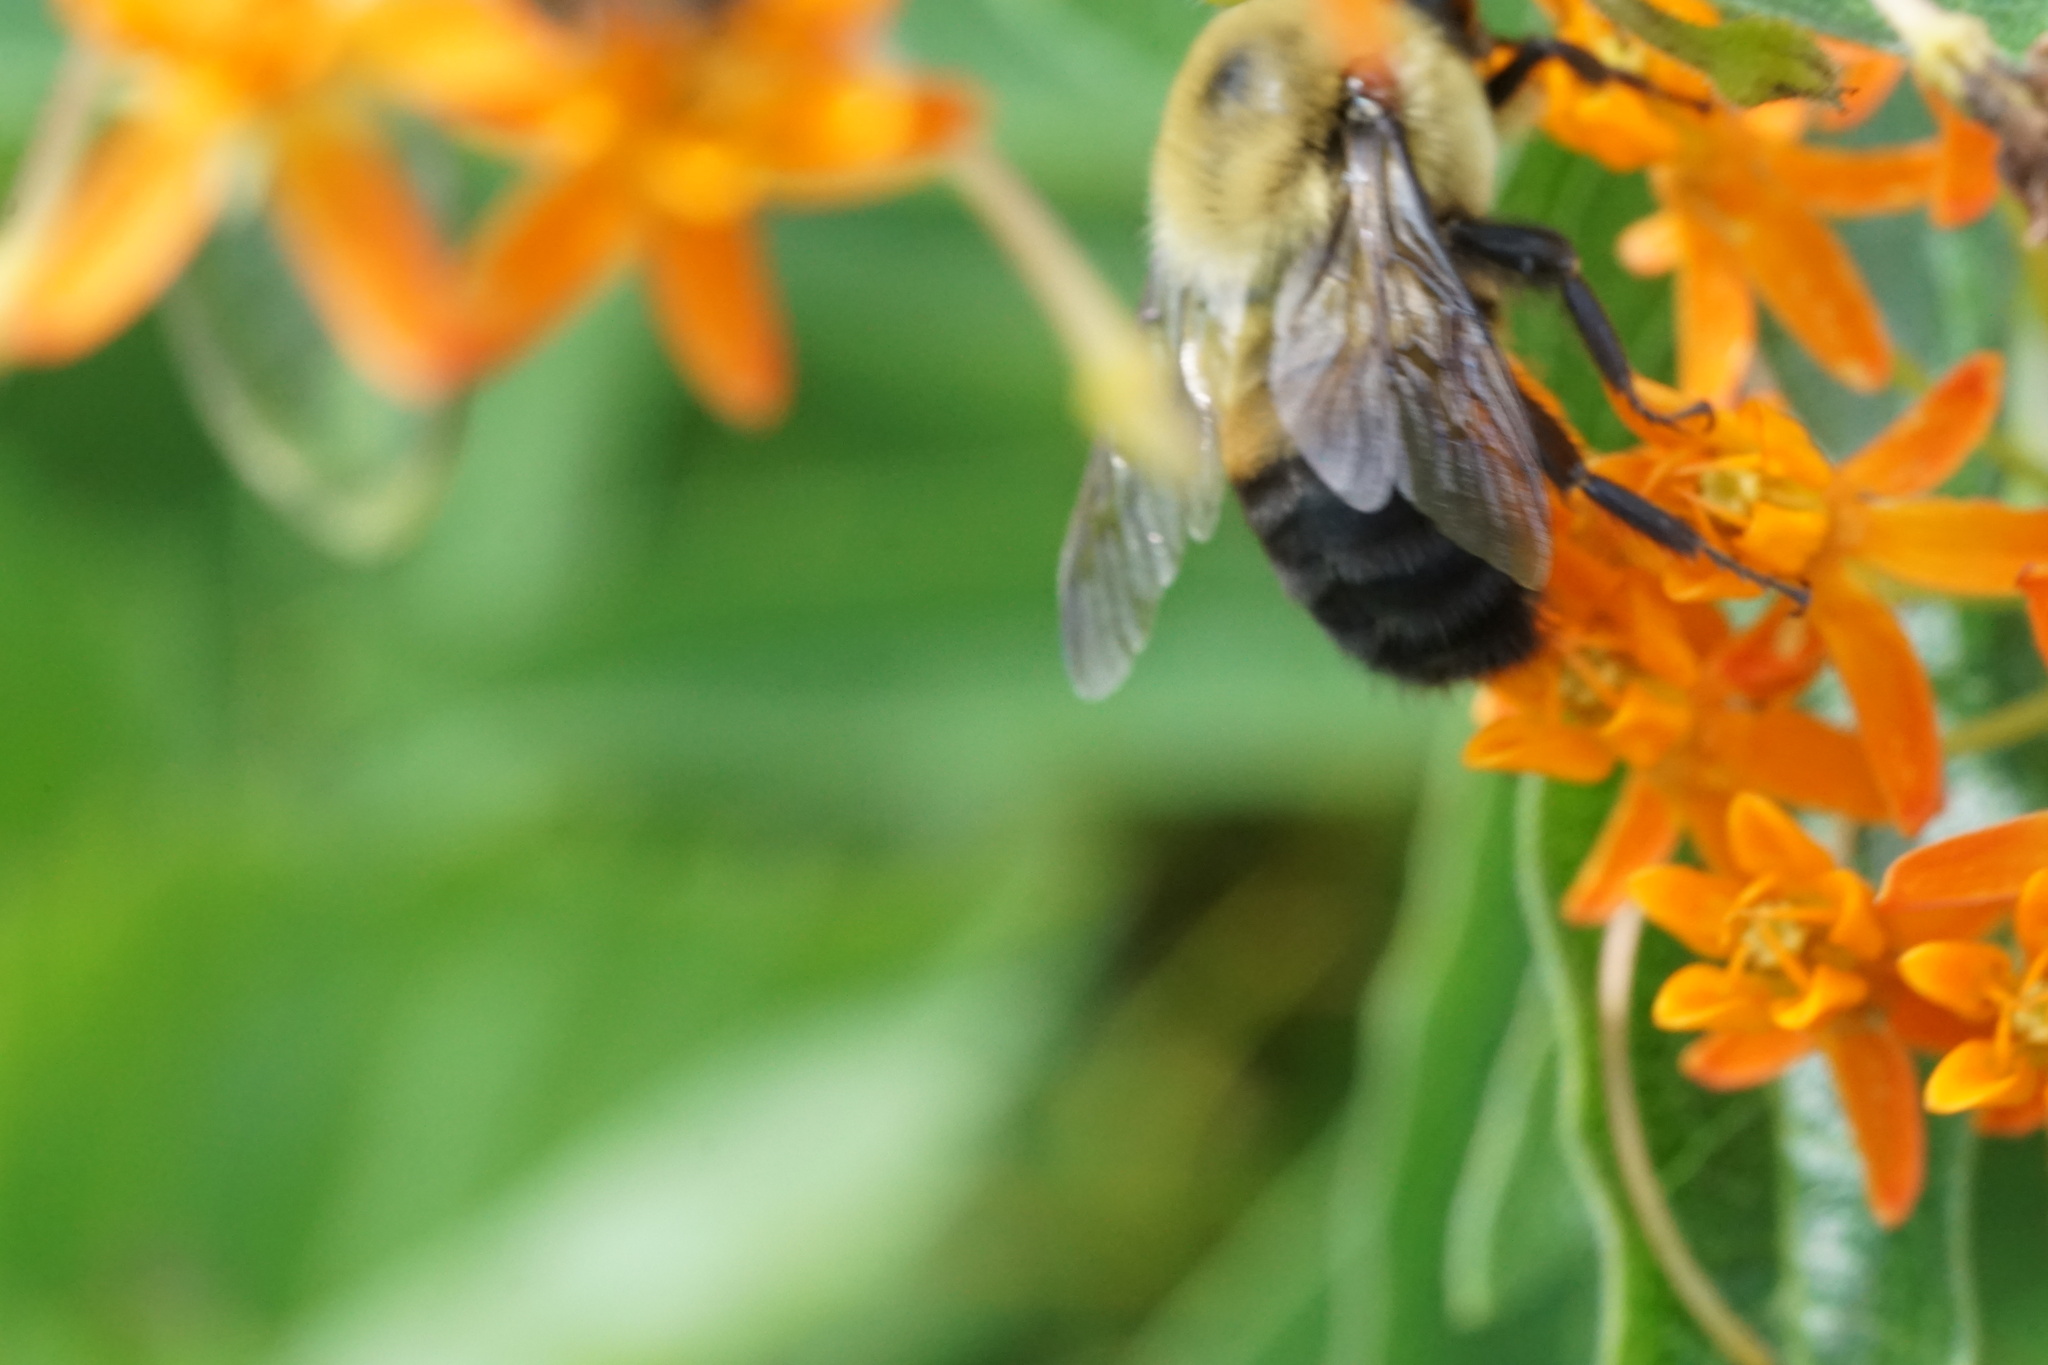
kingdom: Animalia
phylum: Arthropoda
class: Insecta
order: Hymenoptera
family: Apidae
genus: Bombus
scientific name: Bombus griseocollis
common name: Brown-belted bumble bee
